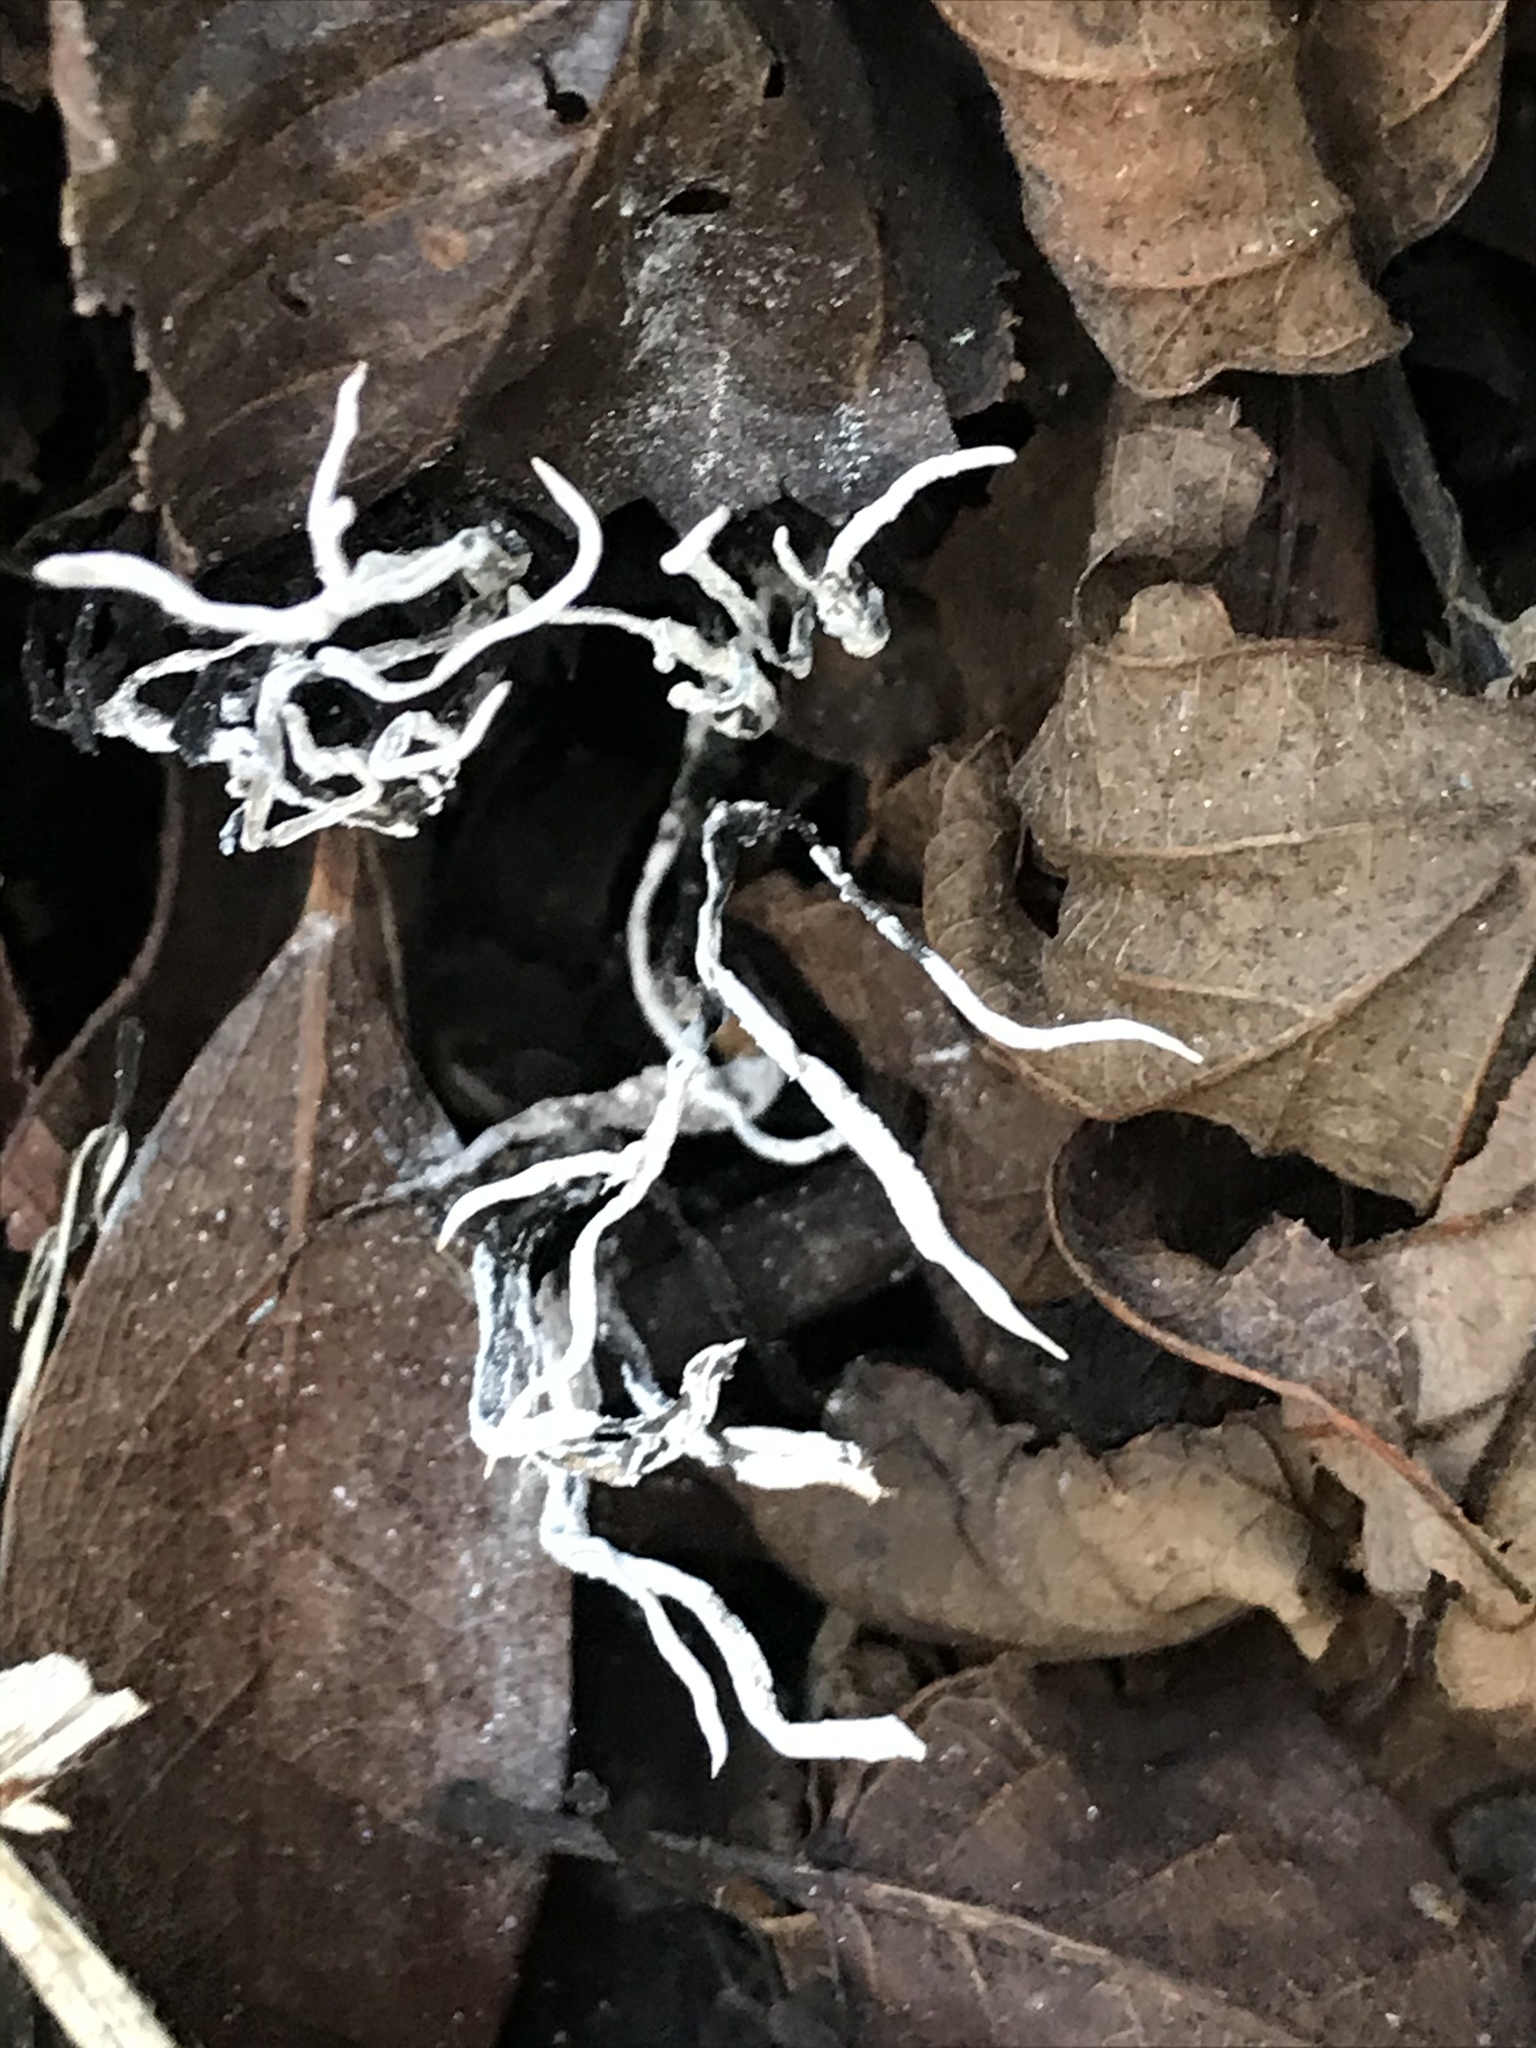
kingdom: Fungi
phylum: Ascomycota
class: Sordariomycetes
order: Xylariales
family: Xylariaceae
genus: Xylaria
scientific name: Xylaria hypoxylon
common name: Candle-snuff fungus
